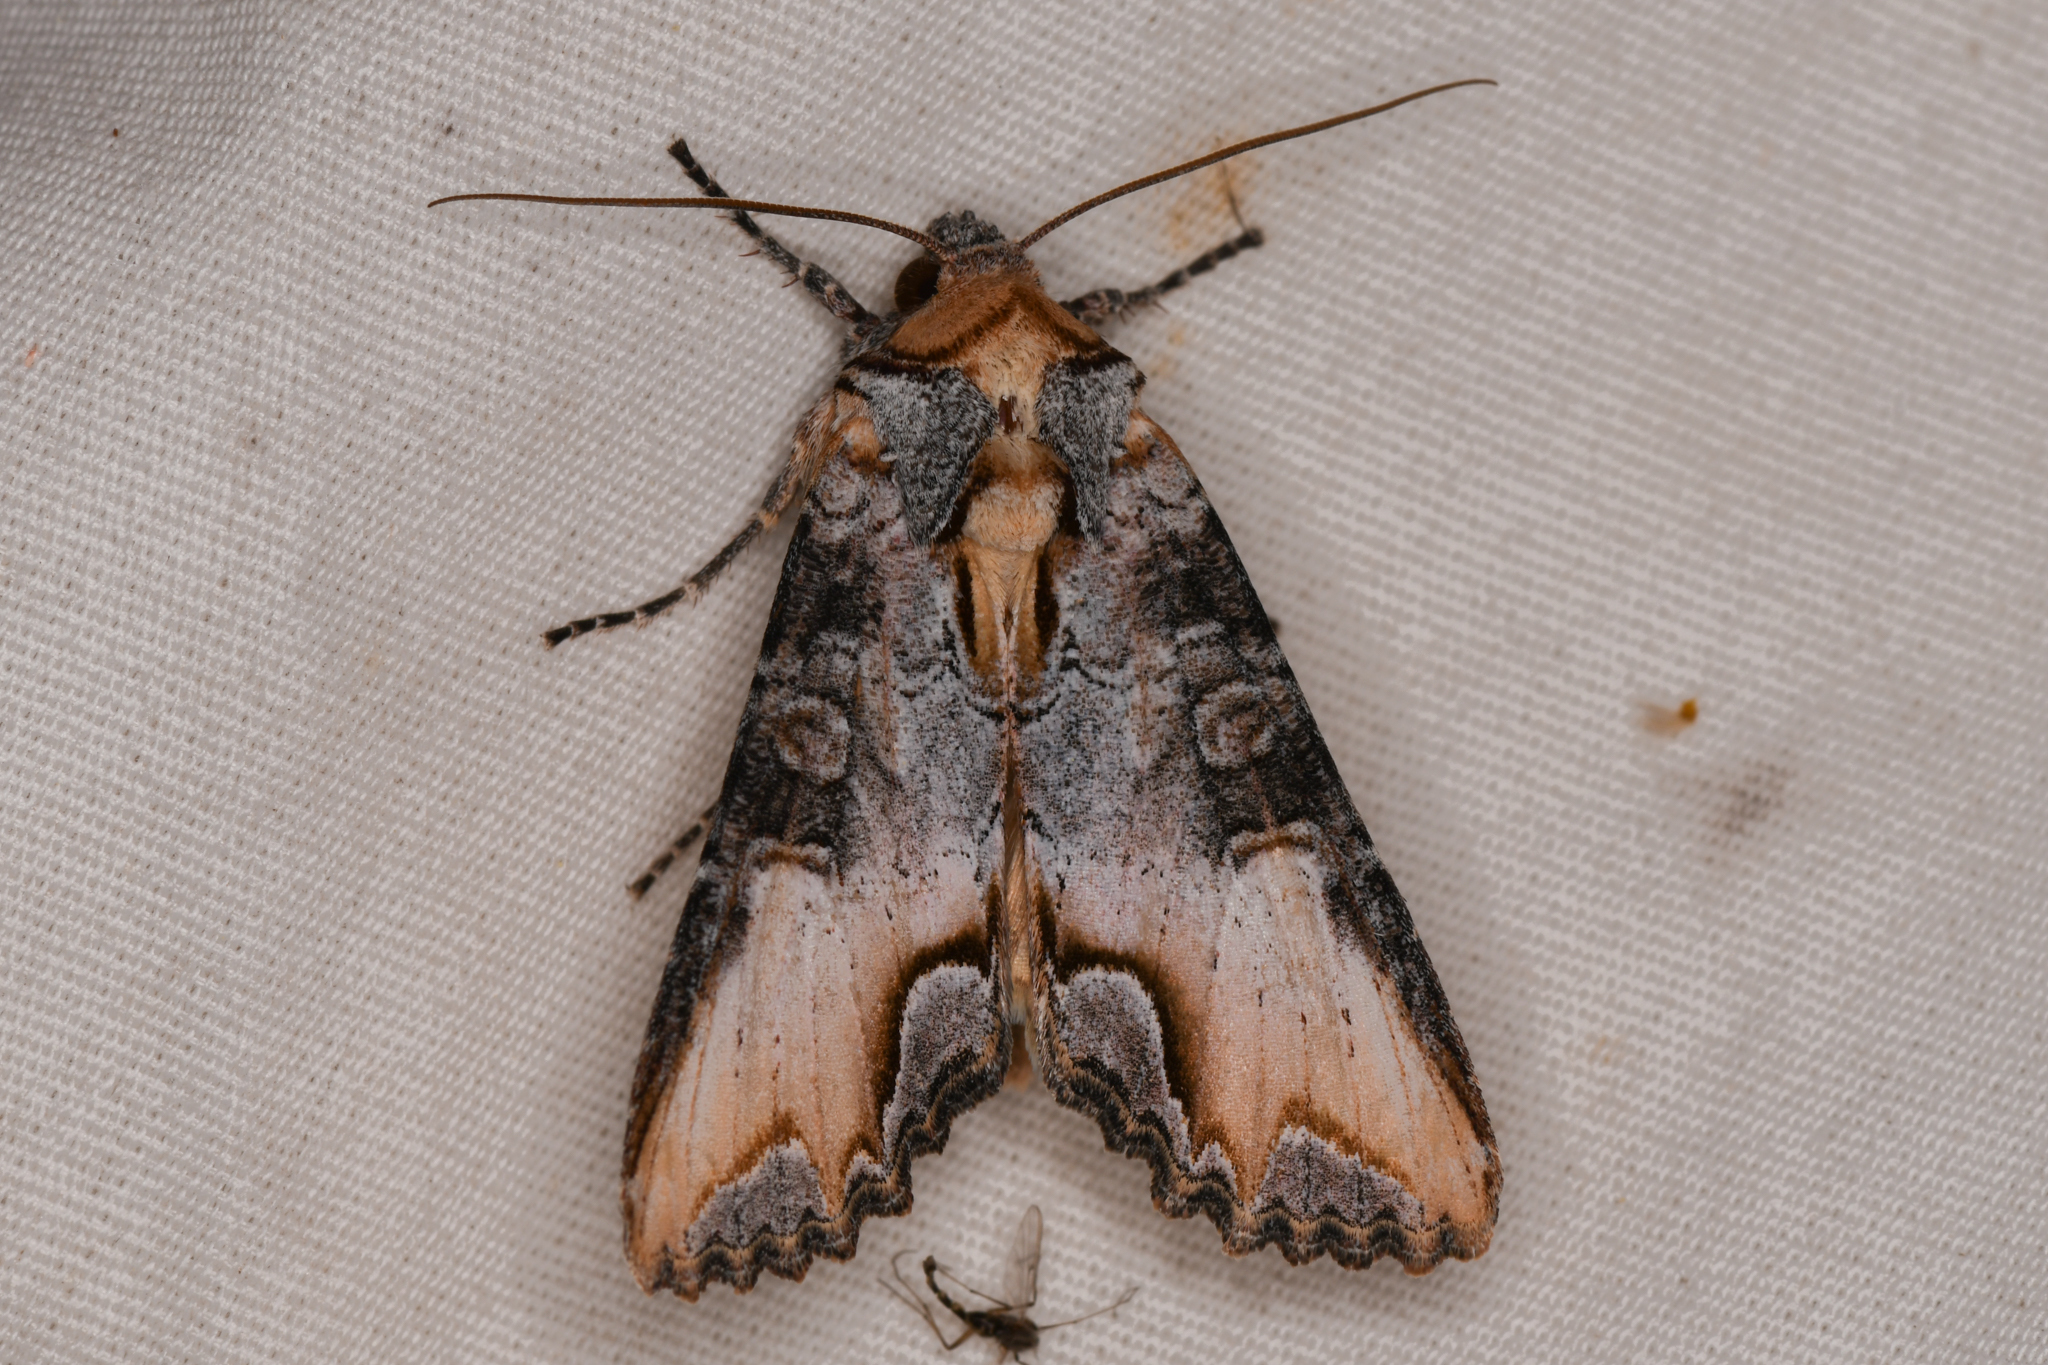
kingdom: Animalia
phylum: Arthropoda
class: Insecta
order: Lepidoptera
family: Noctuidae
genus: Admetovis
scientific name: Admetovis oxymorus
